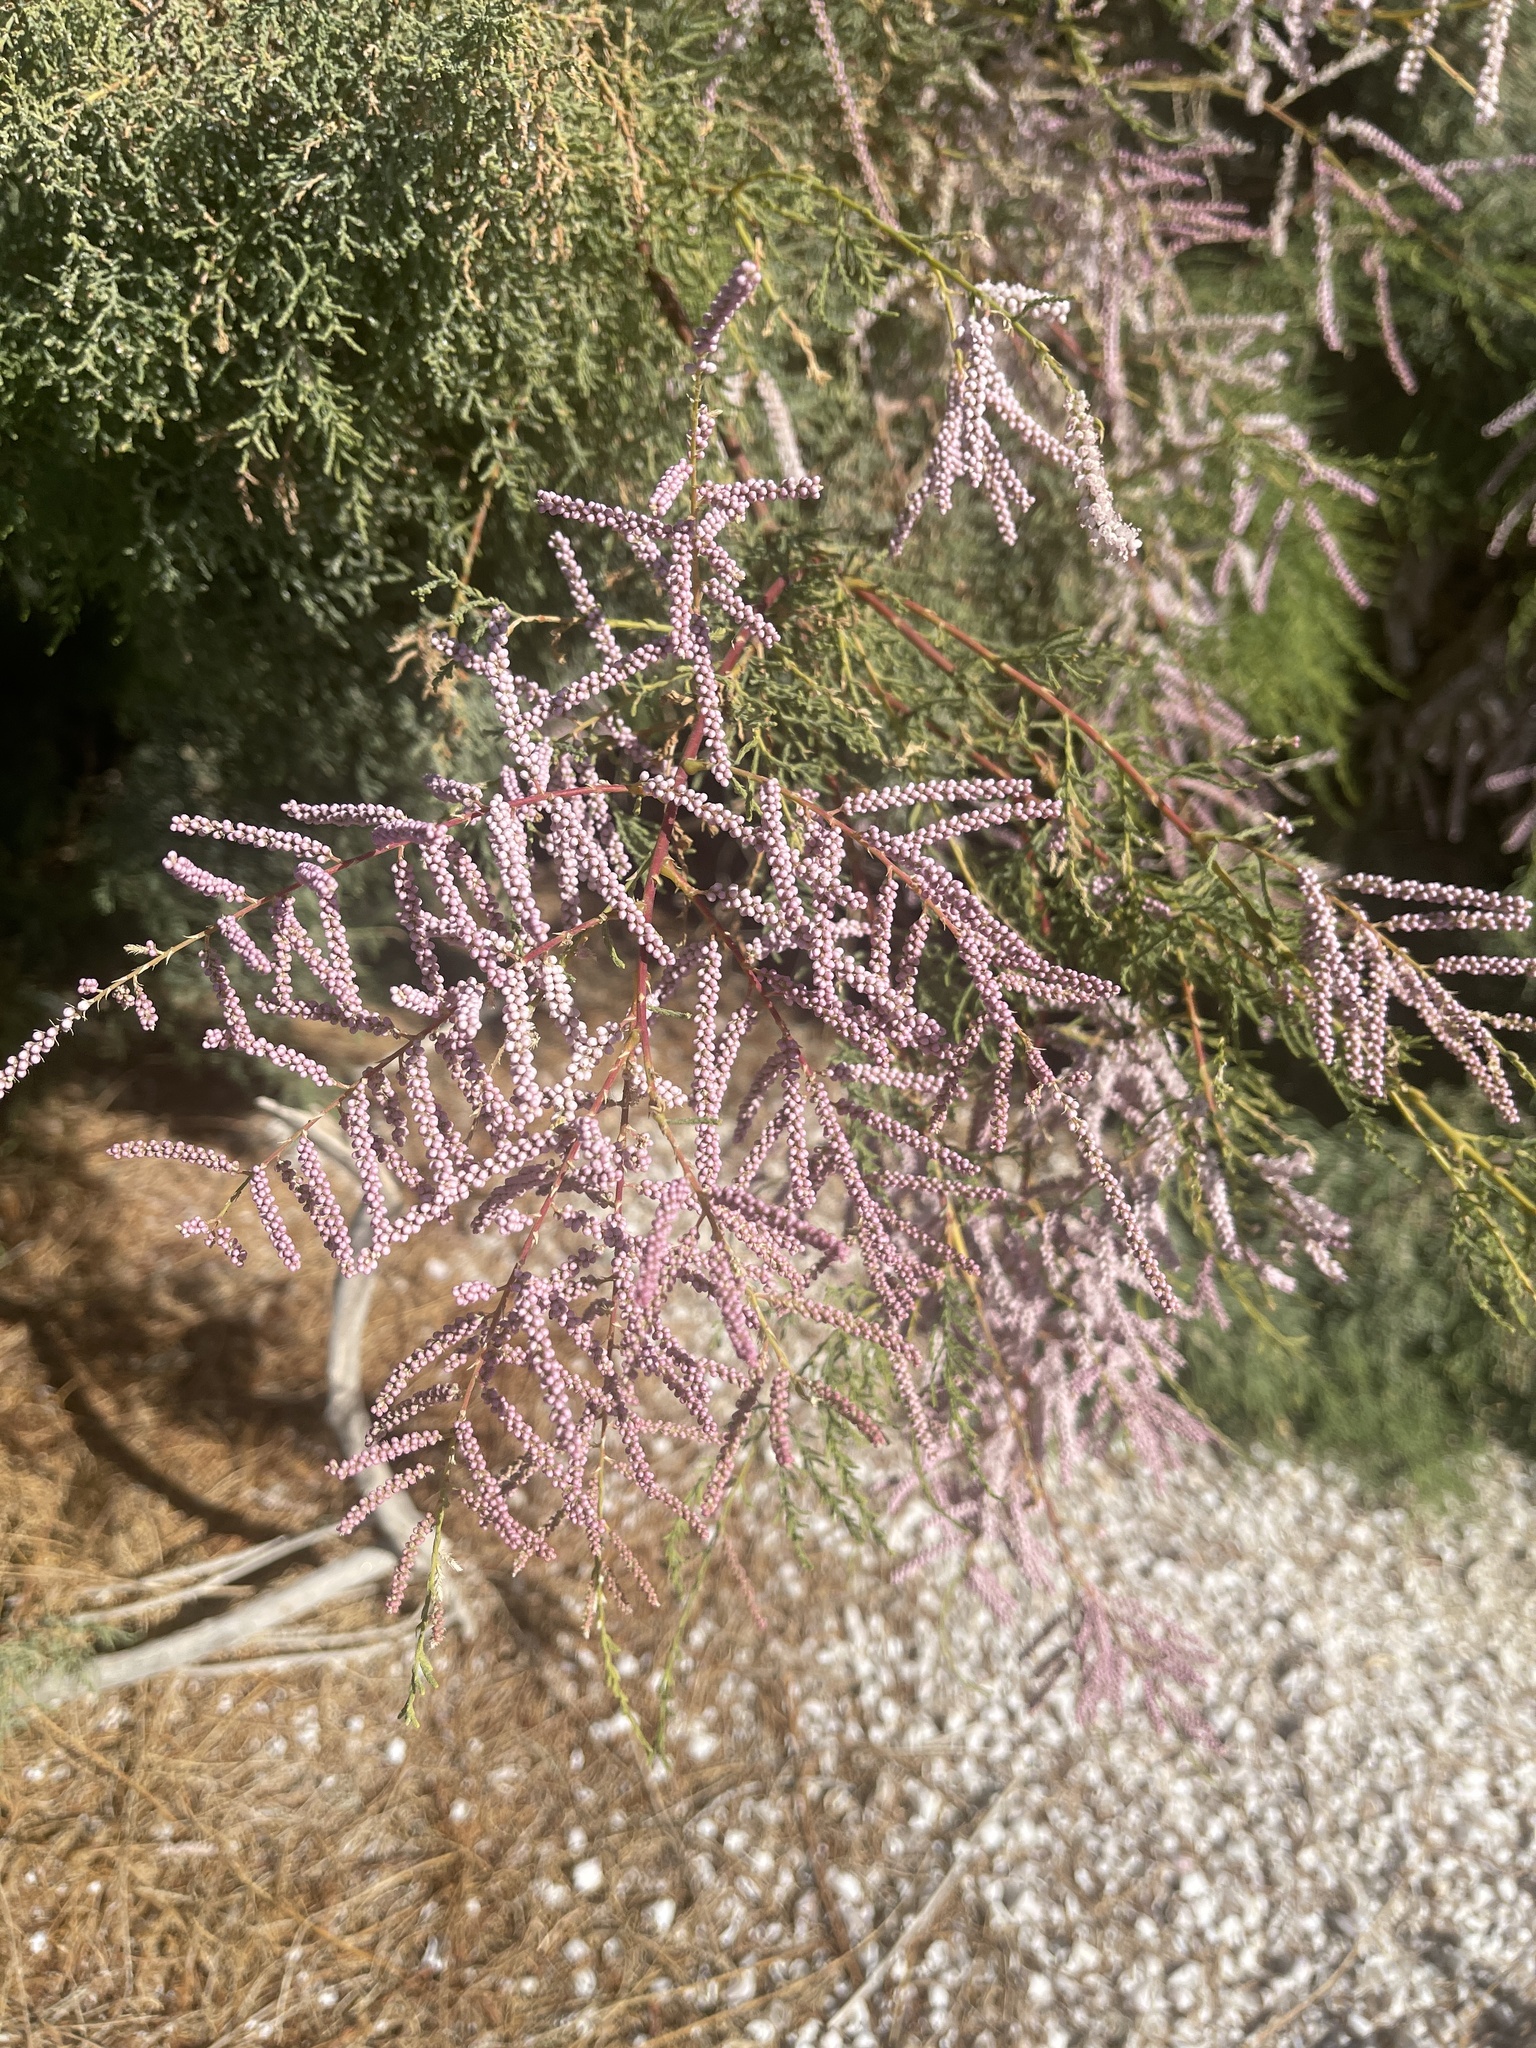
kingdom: Plantae
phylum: Tracheophyta
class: Magnoliopsida
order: Caryophyllales
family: Tamaricaceae
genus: Tamarix
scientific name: Tamarix
